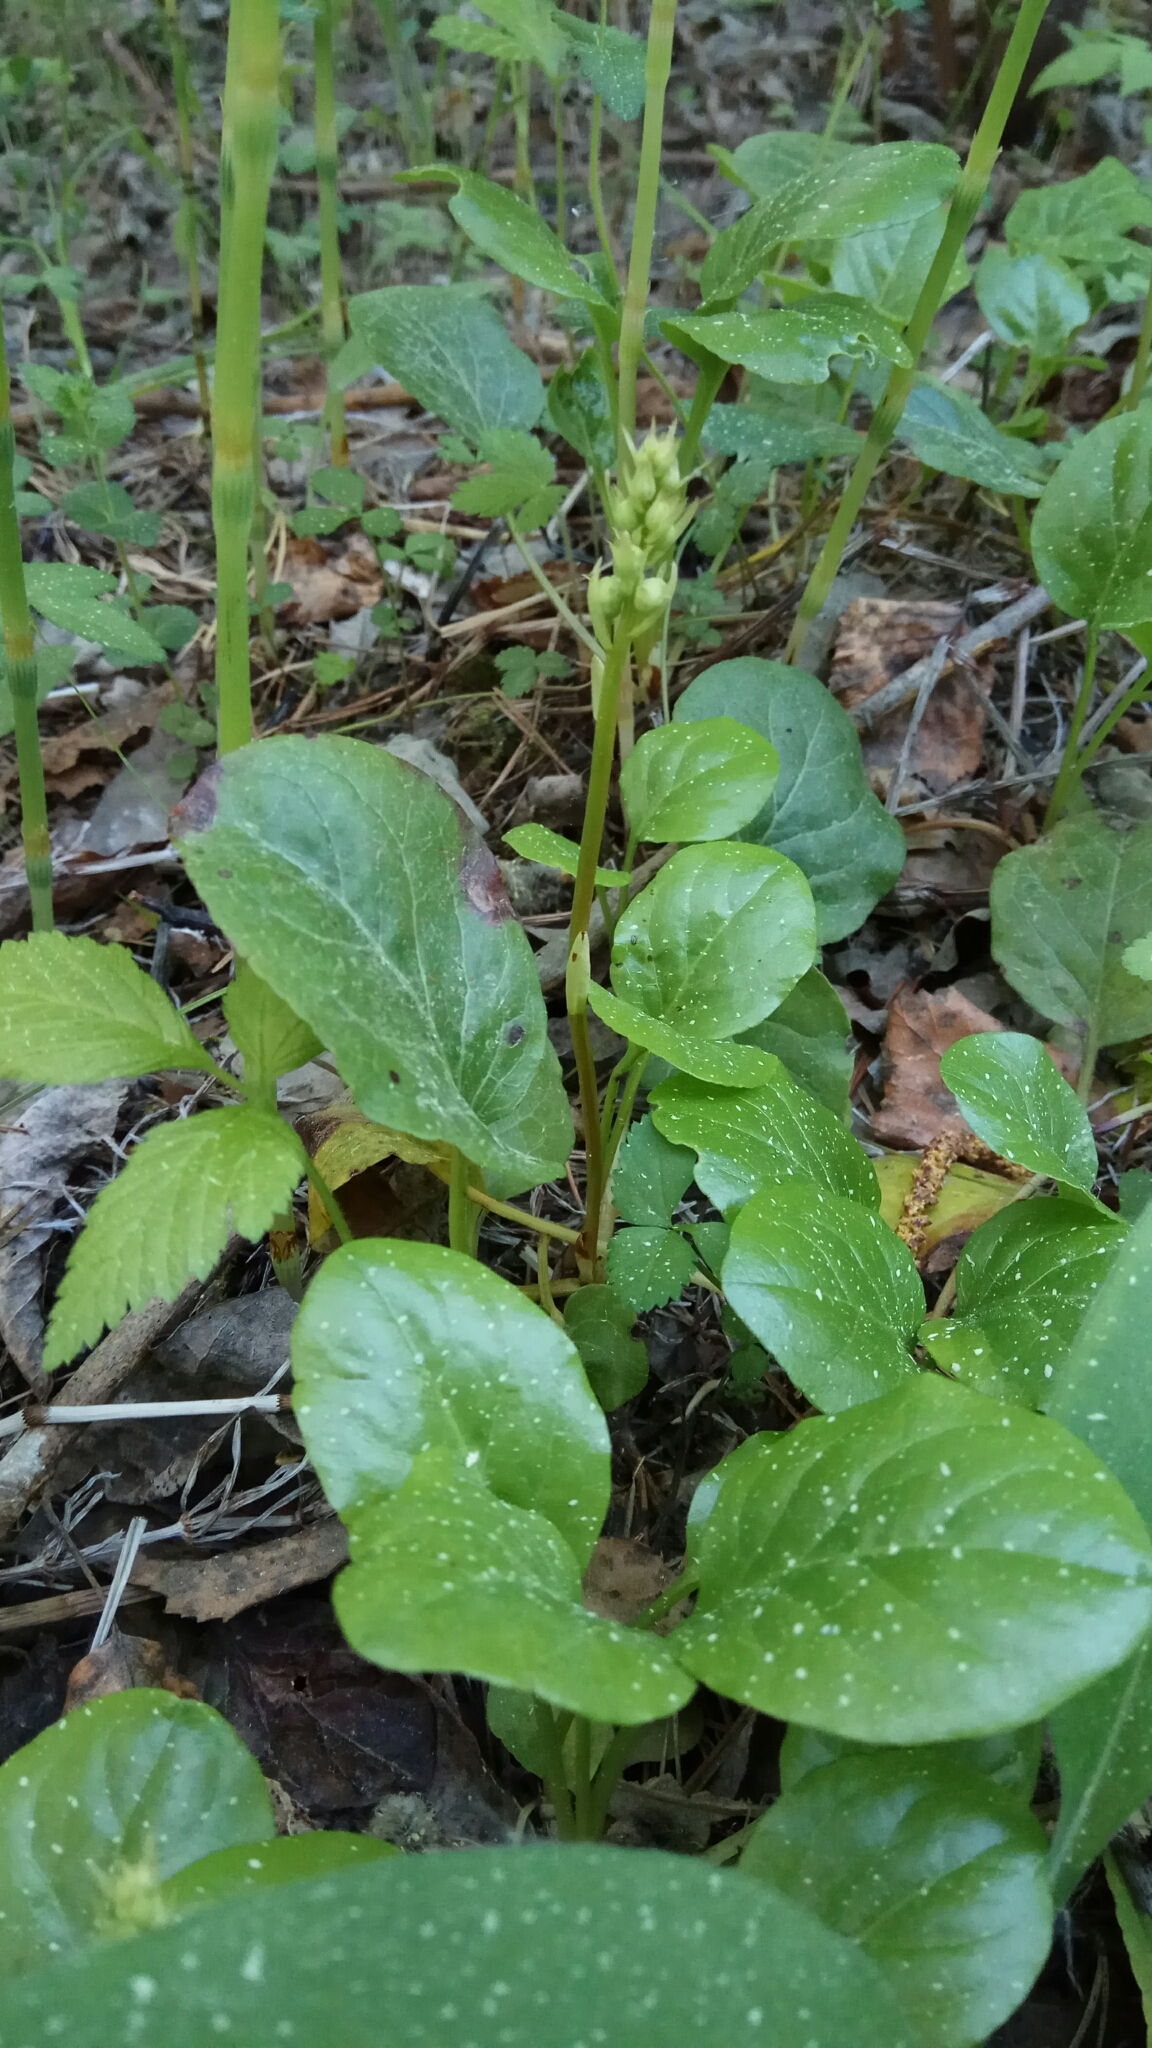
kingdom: Plantae
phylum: Tracheophyta
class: Magnoliopsida
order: Ericales
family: Ericaceae
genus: Pyrola
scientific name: Pyrola rotundifolia
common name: Round-leaved wintergreen
